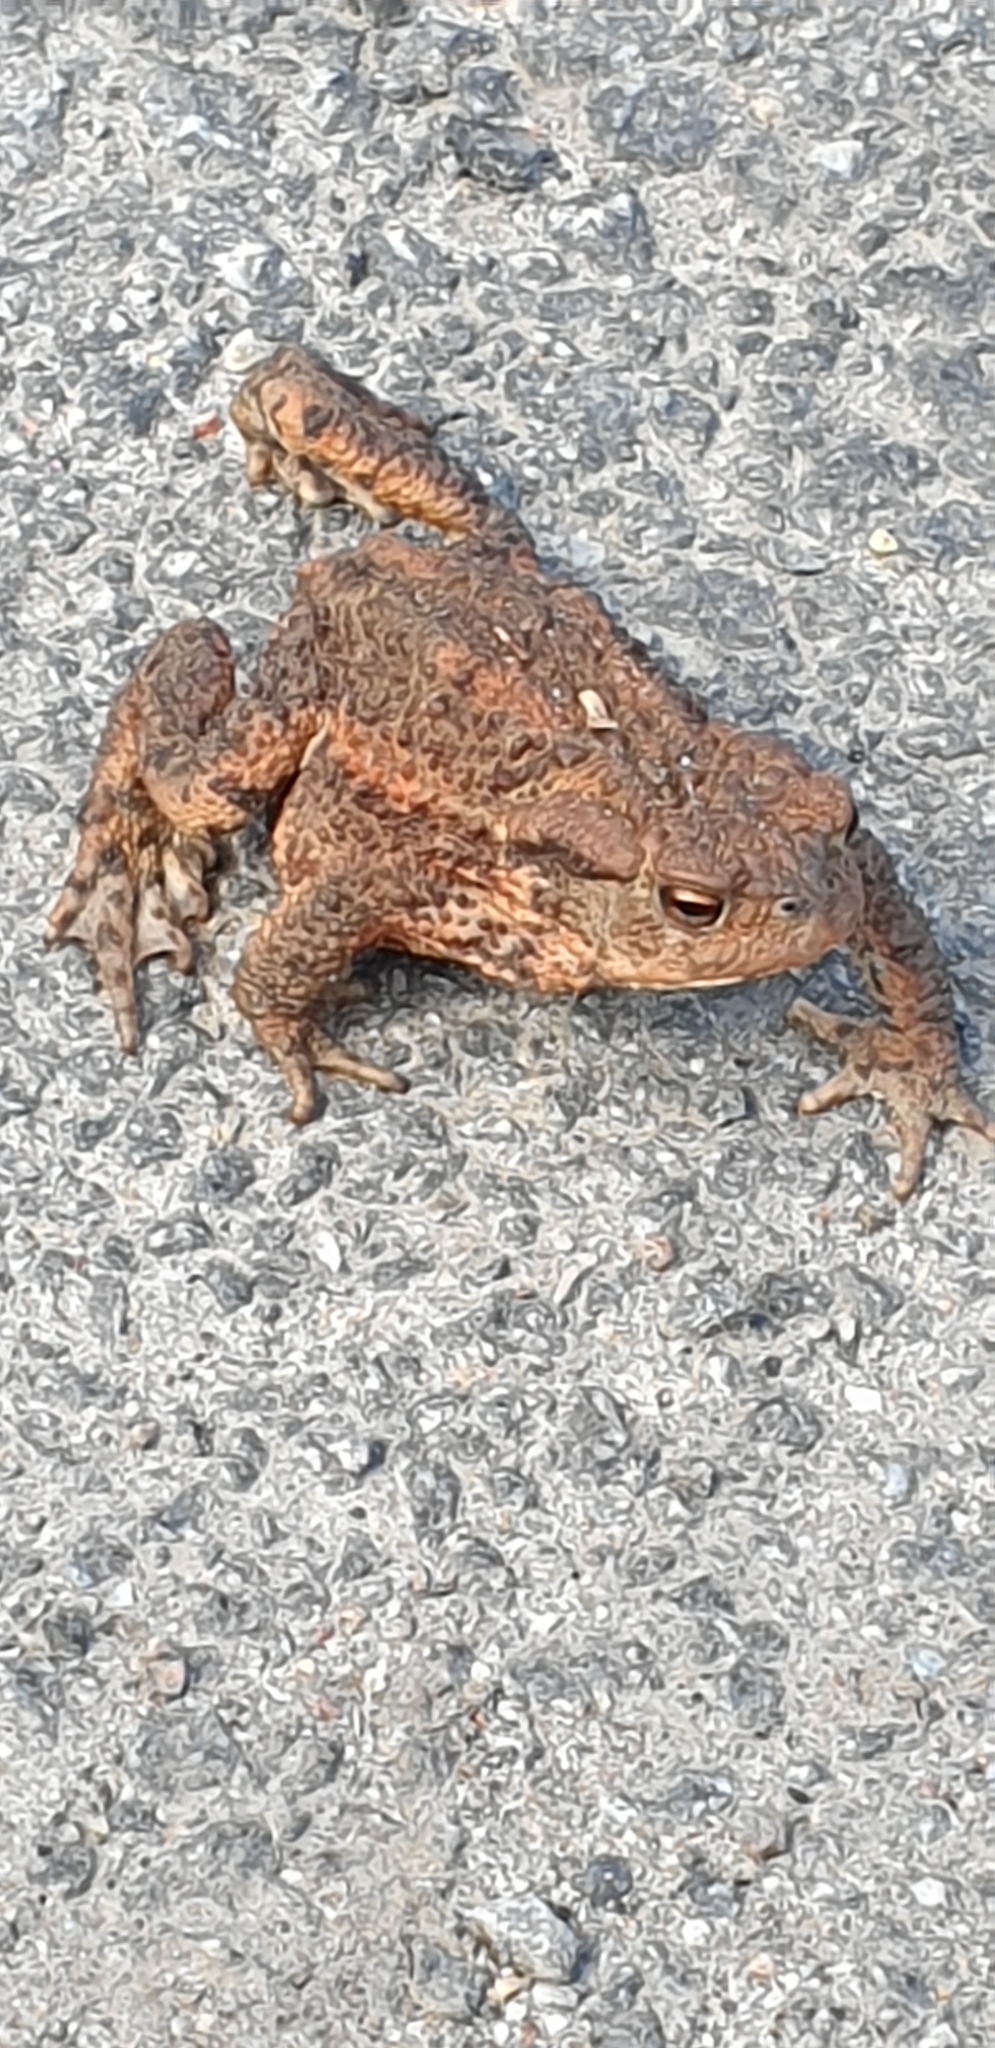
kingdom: Animalia
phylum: Chordata
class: Amphibia
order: Anura
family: Bufonidae
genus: Bufo
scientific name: Bufo bufo
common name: Common toad
